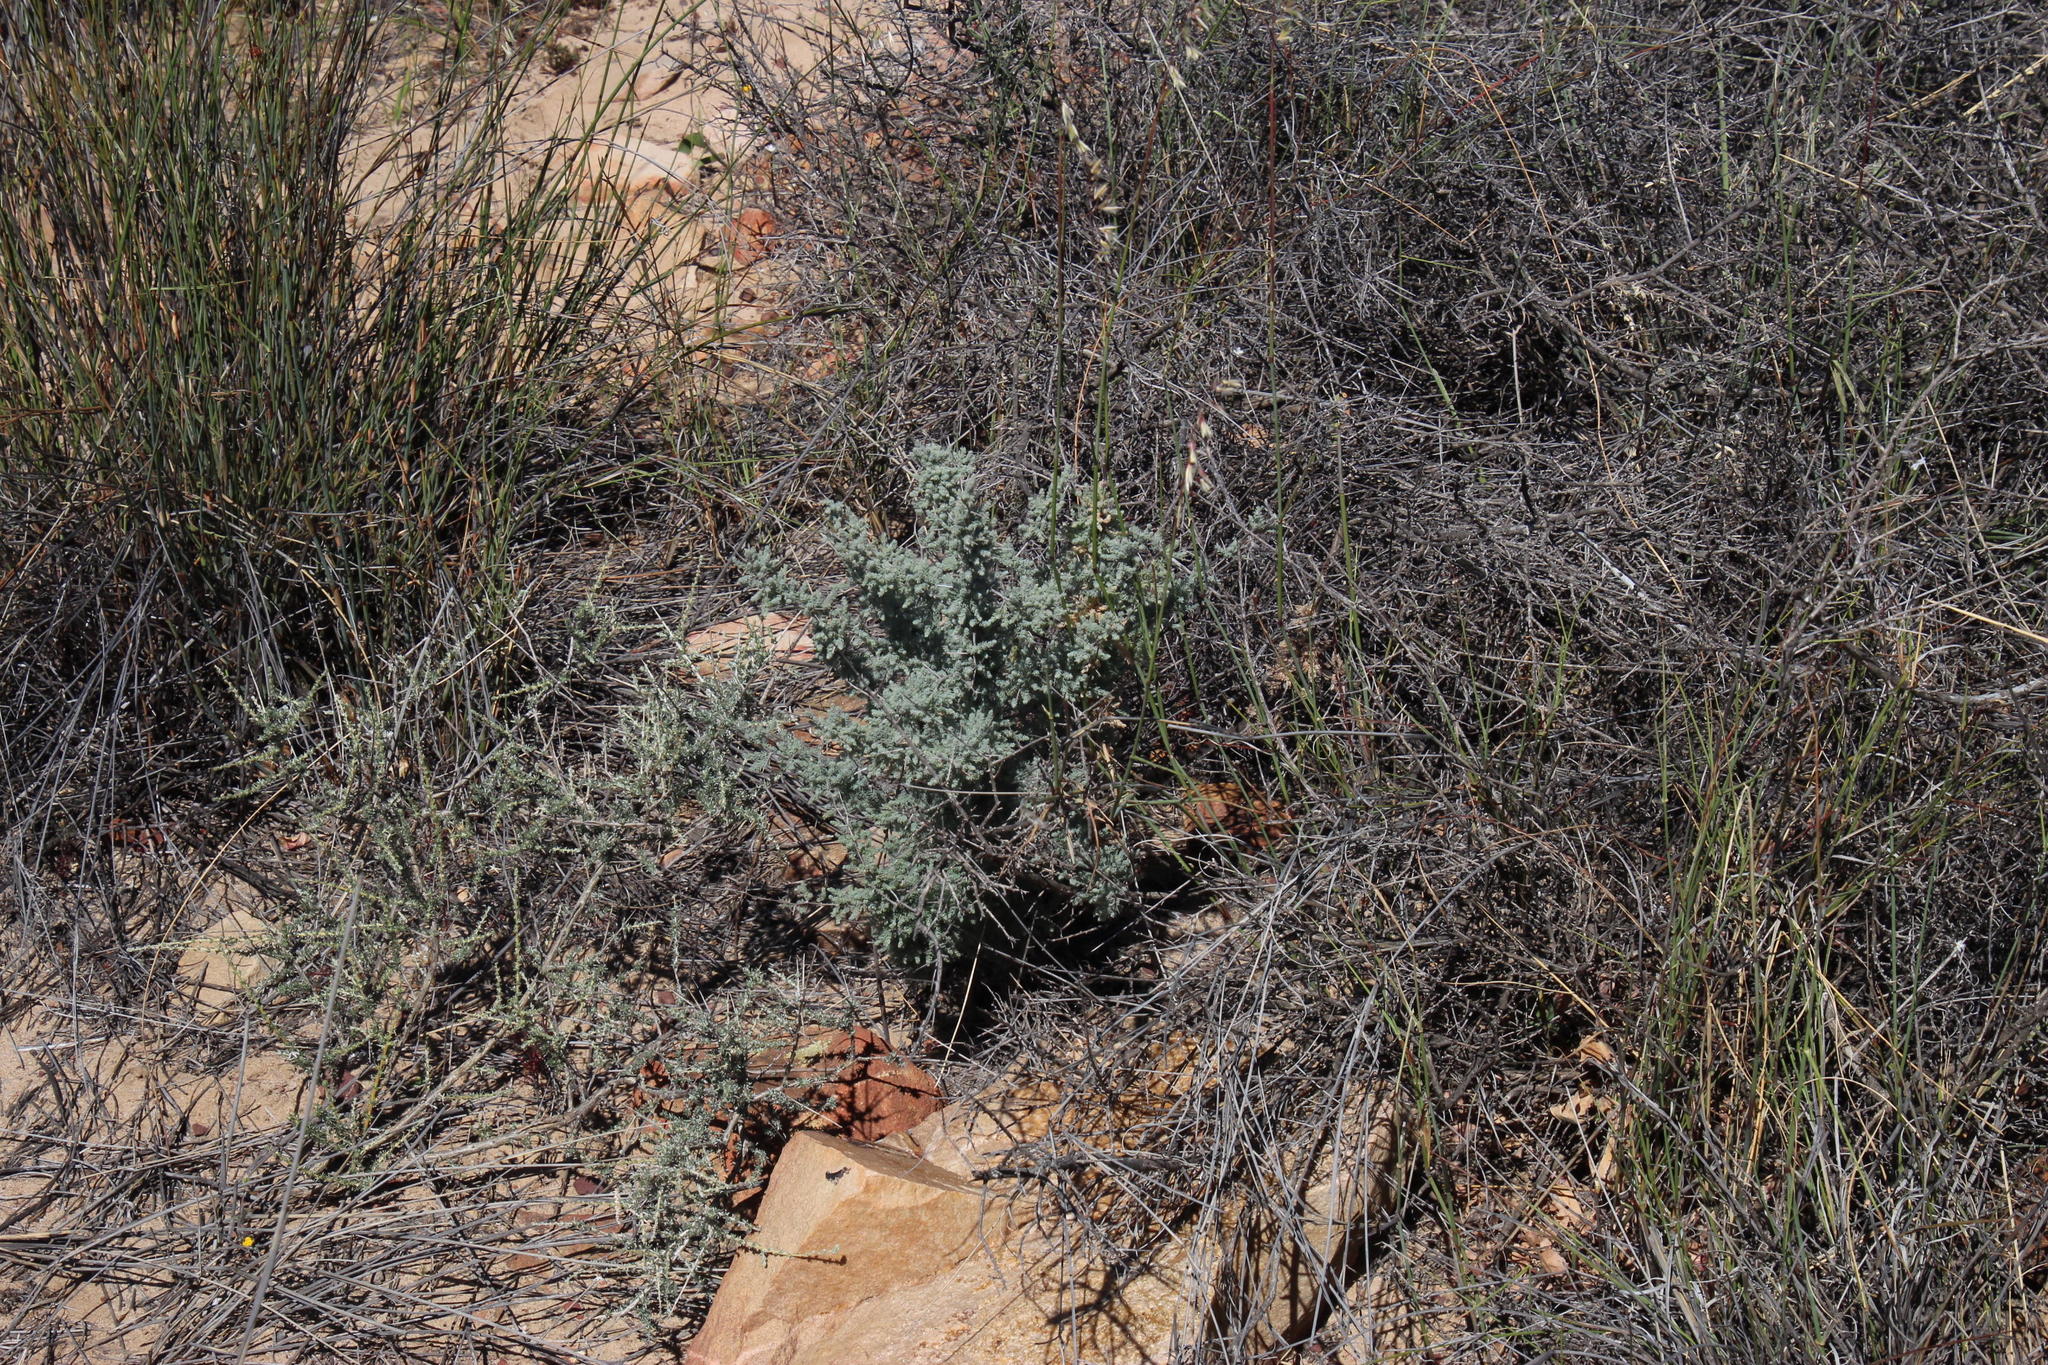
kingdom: Plantae
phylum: Tracheophyta
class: Liliopsida
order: Asparagales
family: Asparagaceae
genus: Asparagus
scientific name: Asparagus capensis
